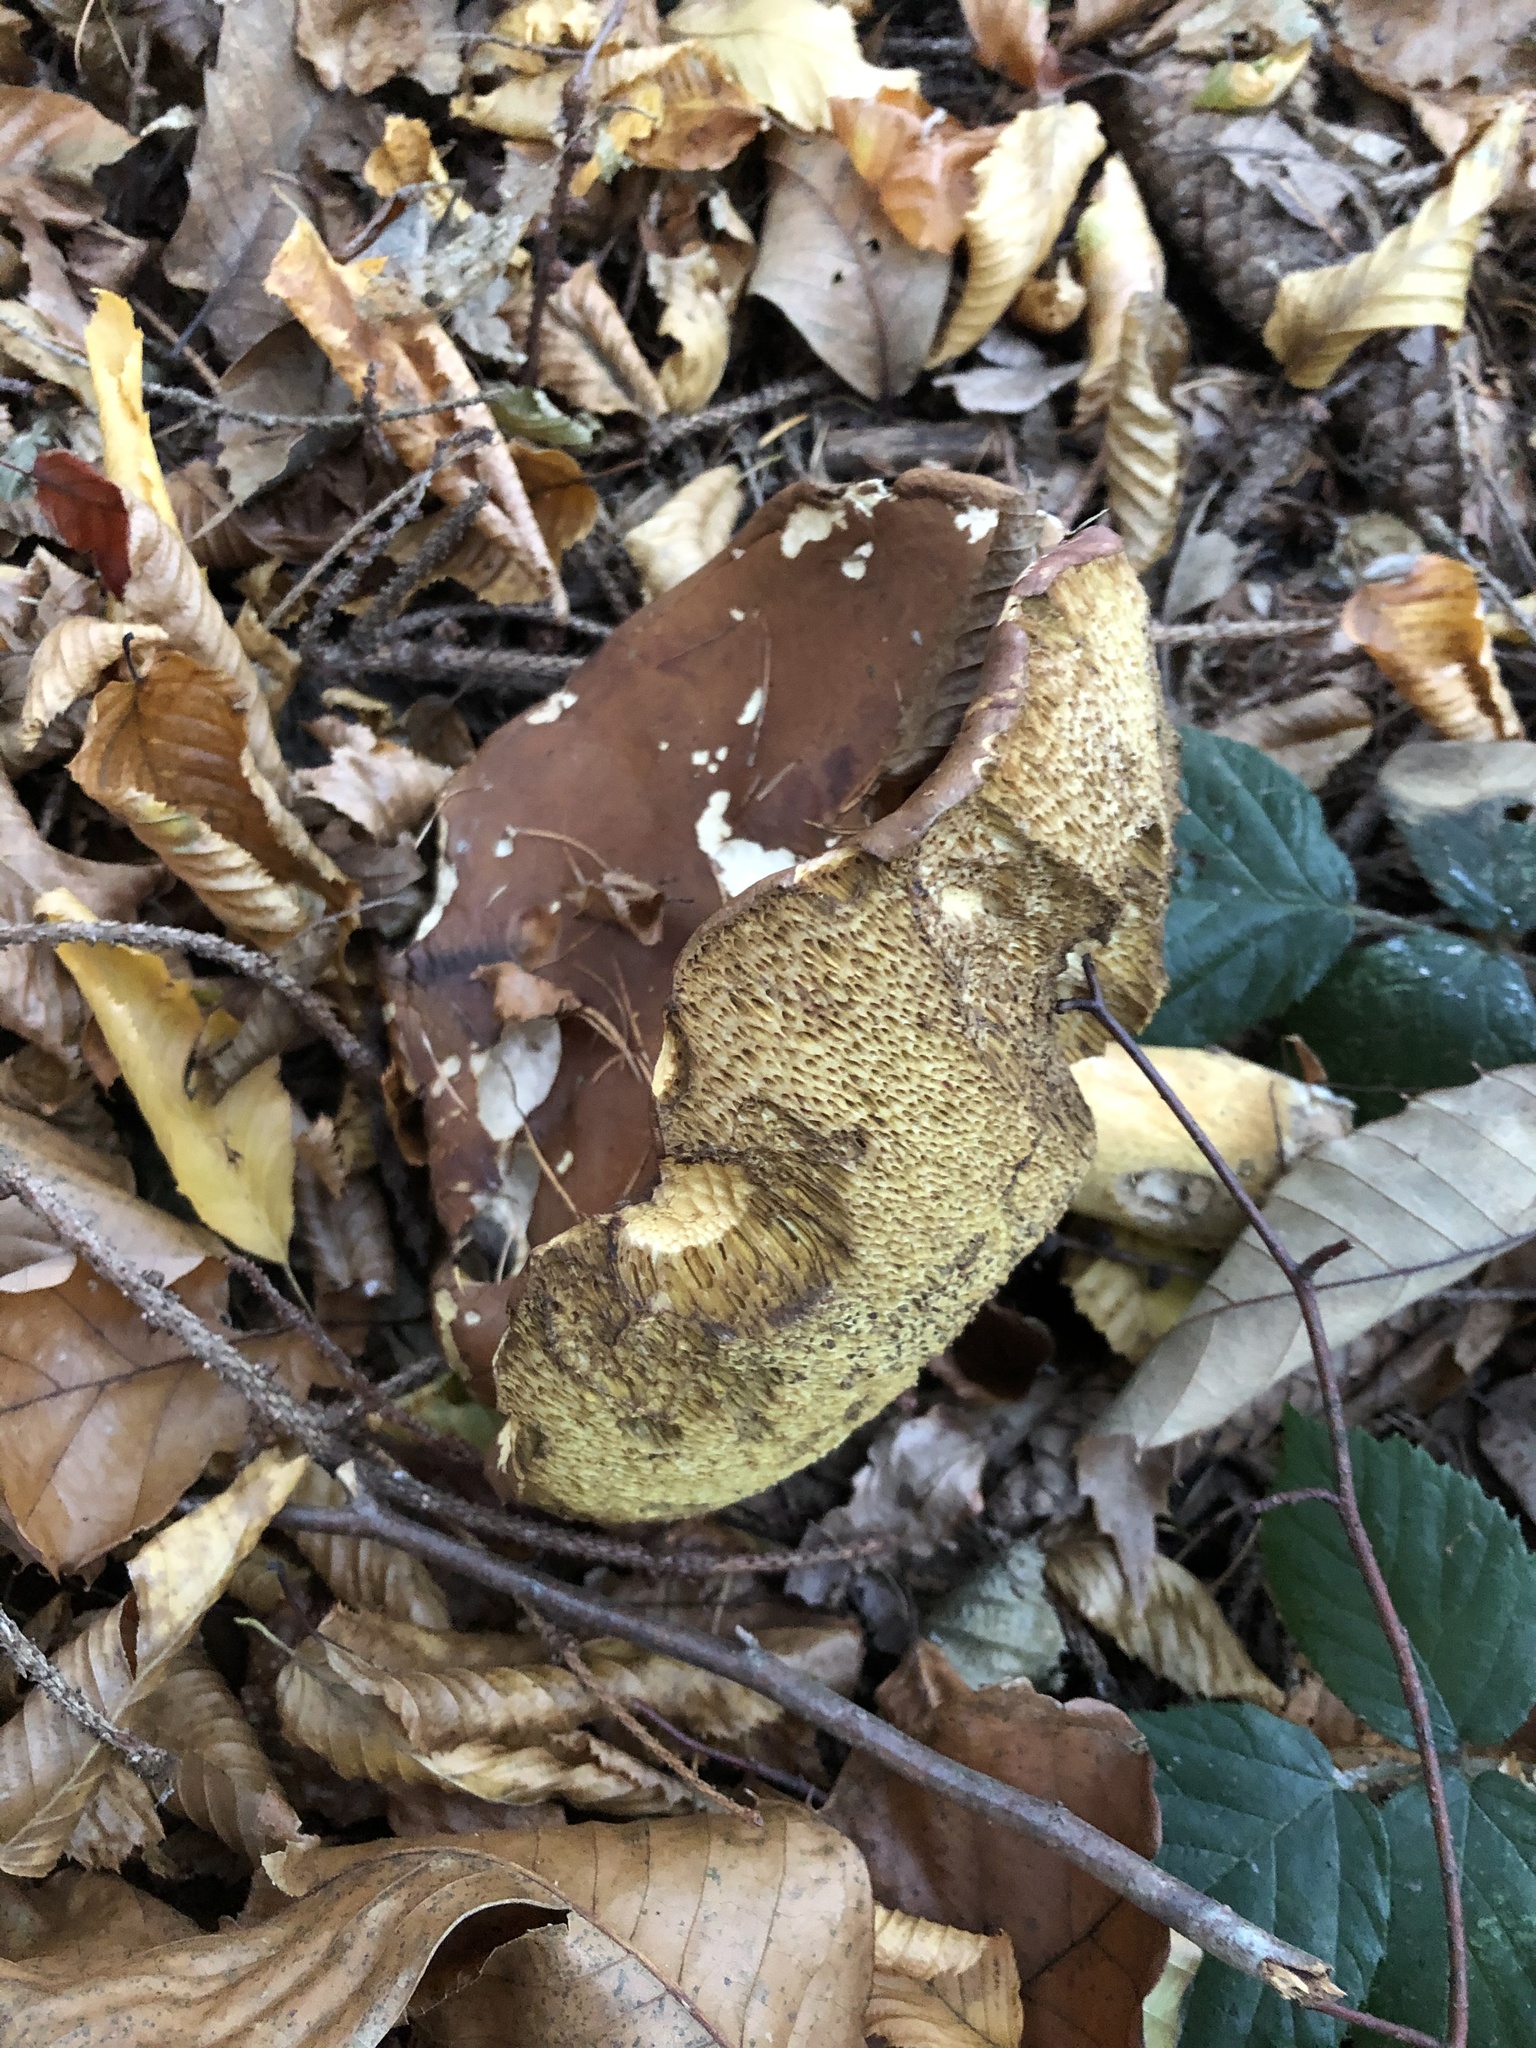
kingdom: Fungi
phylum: Basidiomycota
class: Agaricomycetes
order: Boletales
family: Boletaceae
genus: Imleria
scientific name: Imleria badia
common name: Bay bolete
